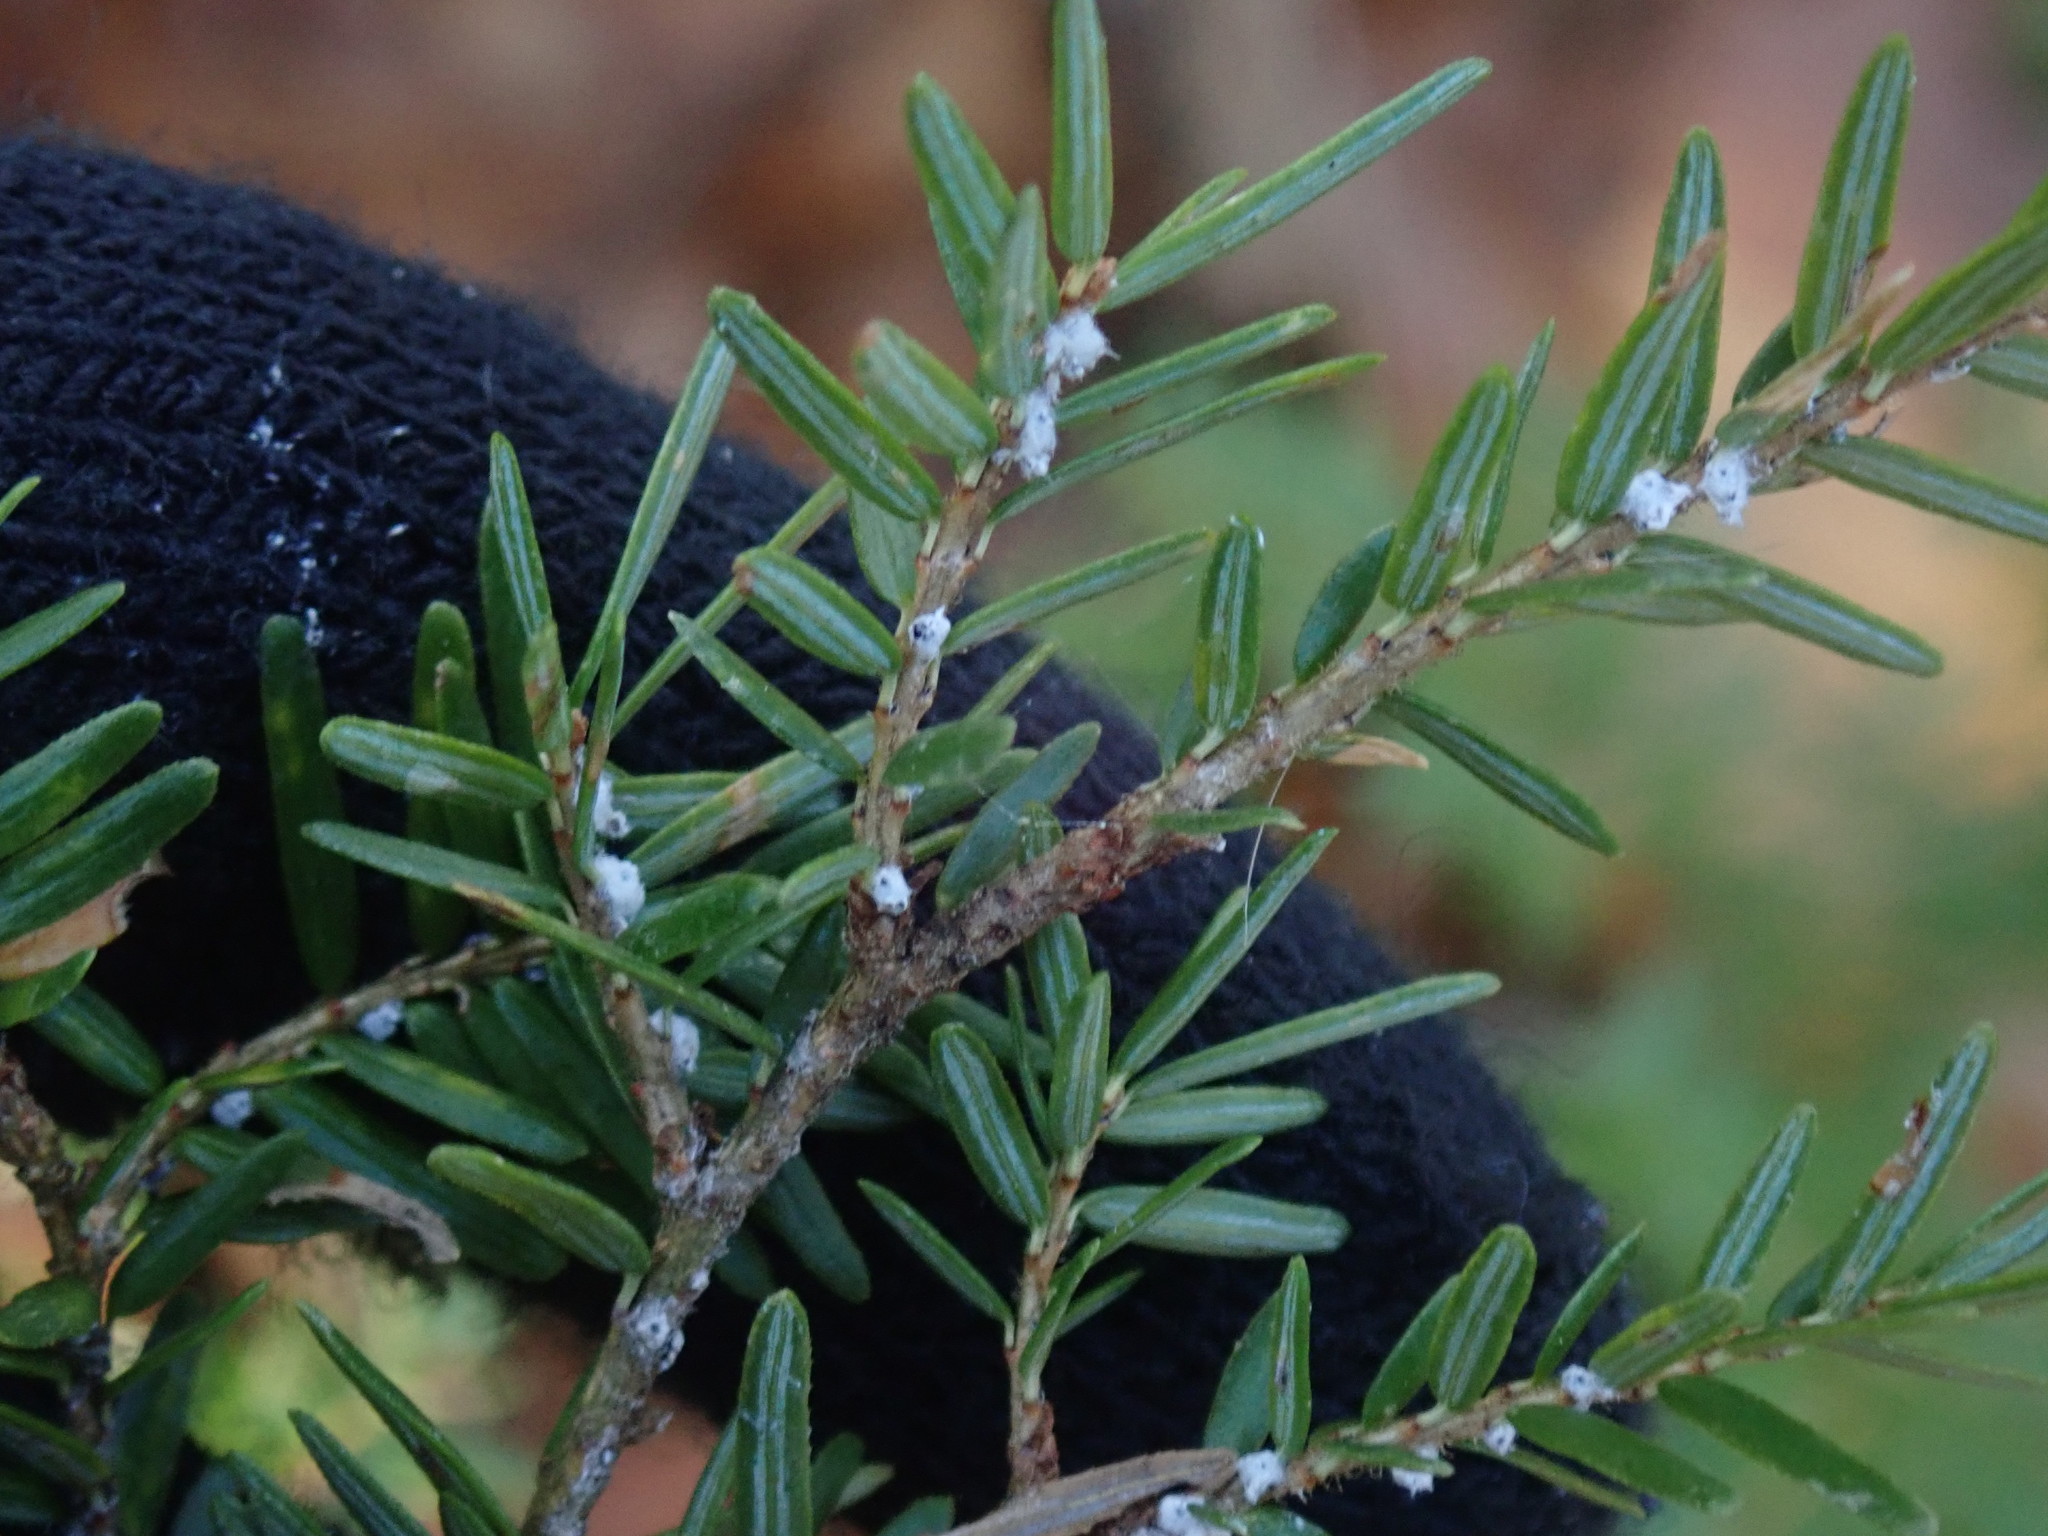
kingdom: Animalia
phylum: Arthropoda
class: Insecta
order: Hemiptera
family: Adelgidae
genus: Adelges
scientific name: Adelges tsugae
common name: Hemlock woolly adelgid
